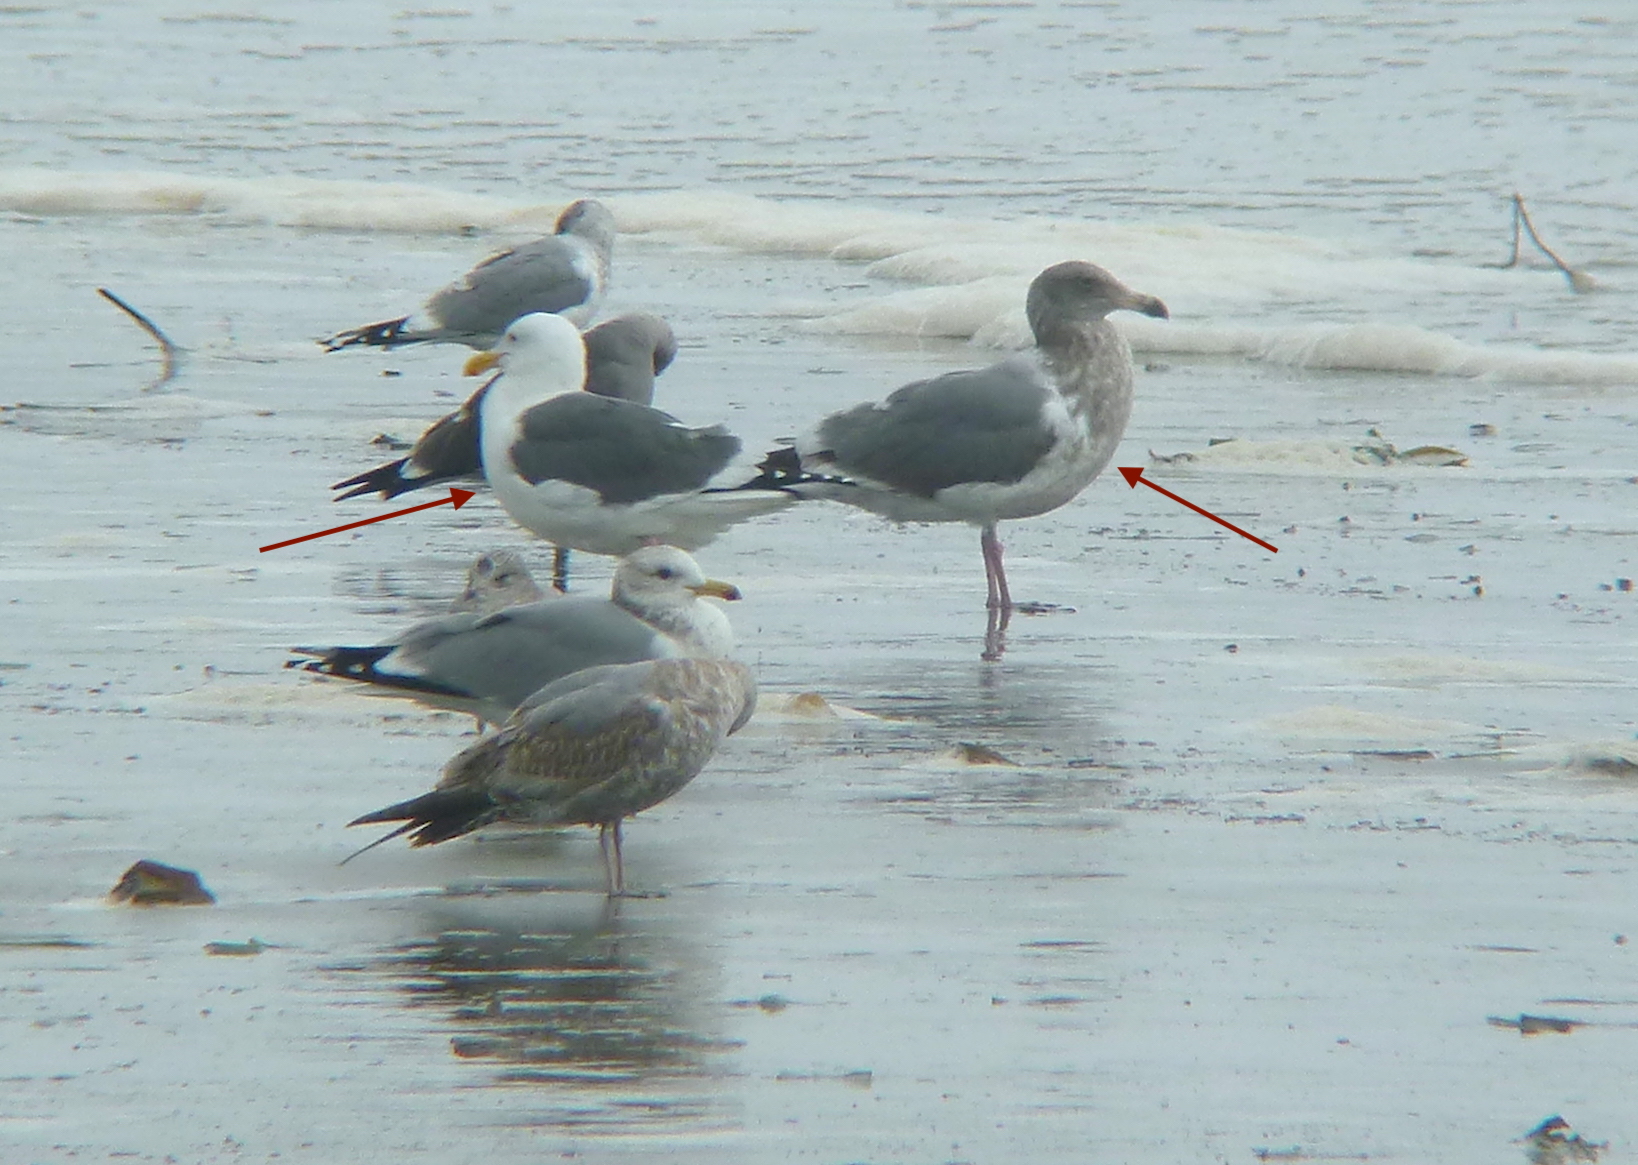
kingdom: Animalia
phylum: Chordata
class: Aves
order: Charadriiformes
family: Laridae
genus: Larus
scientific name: Larus occidentalis
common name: Western gull
